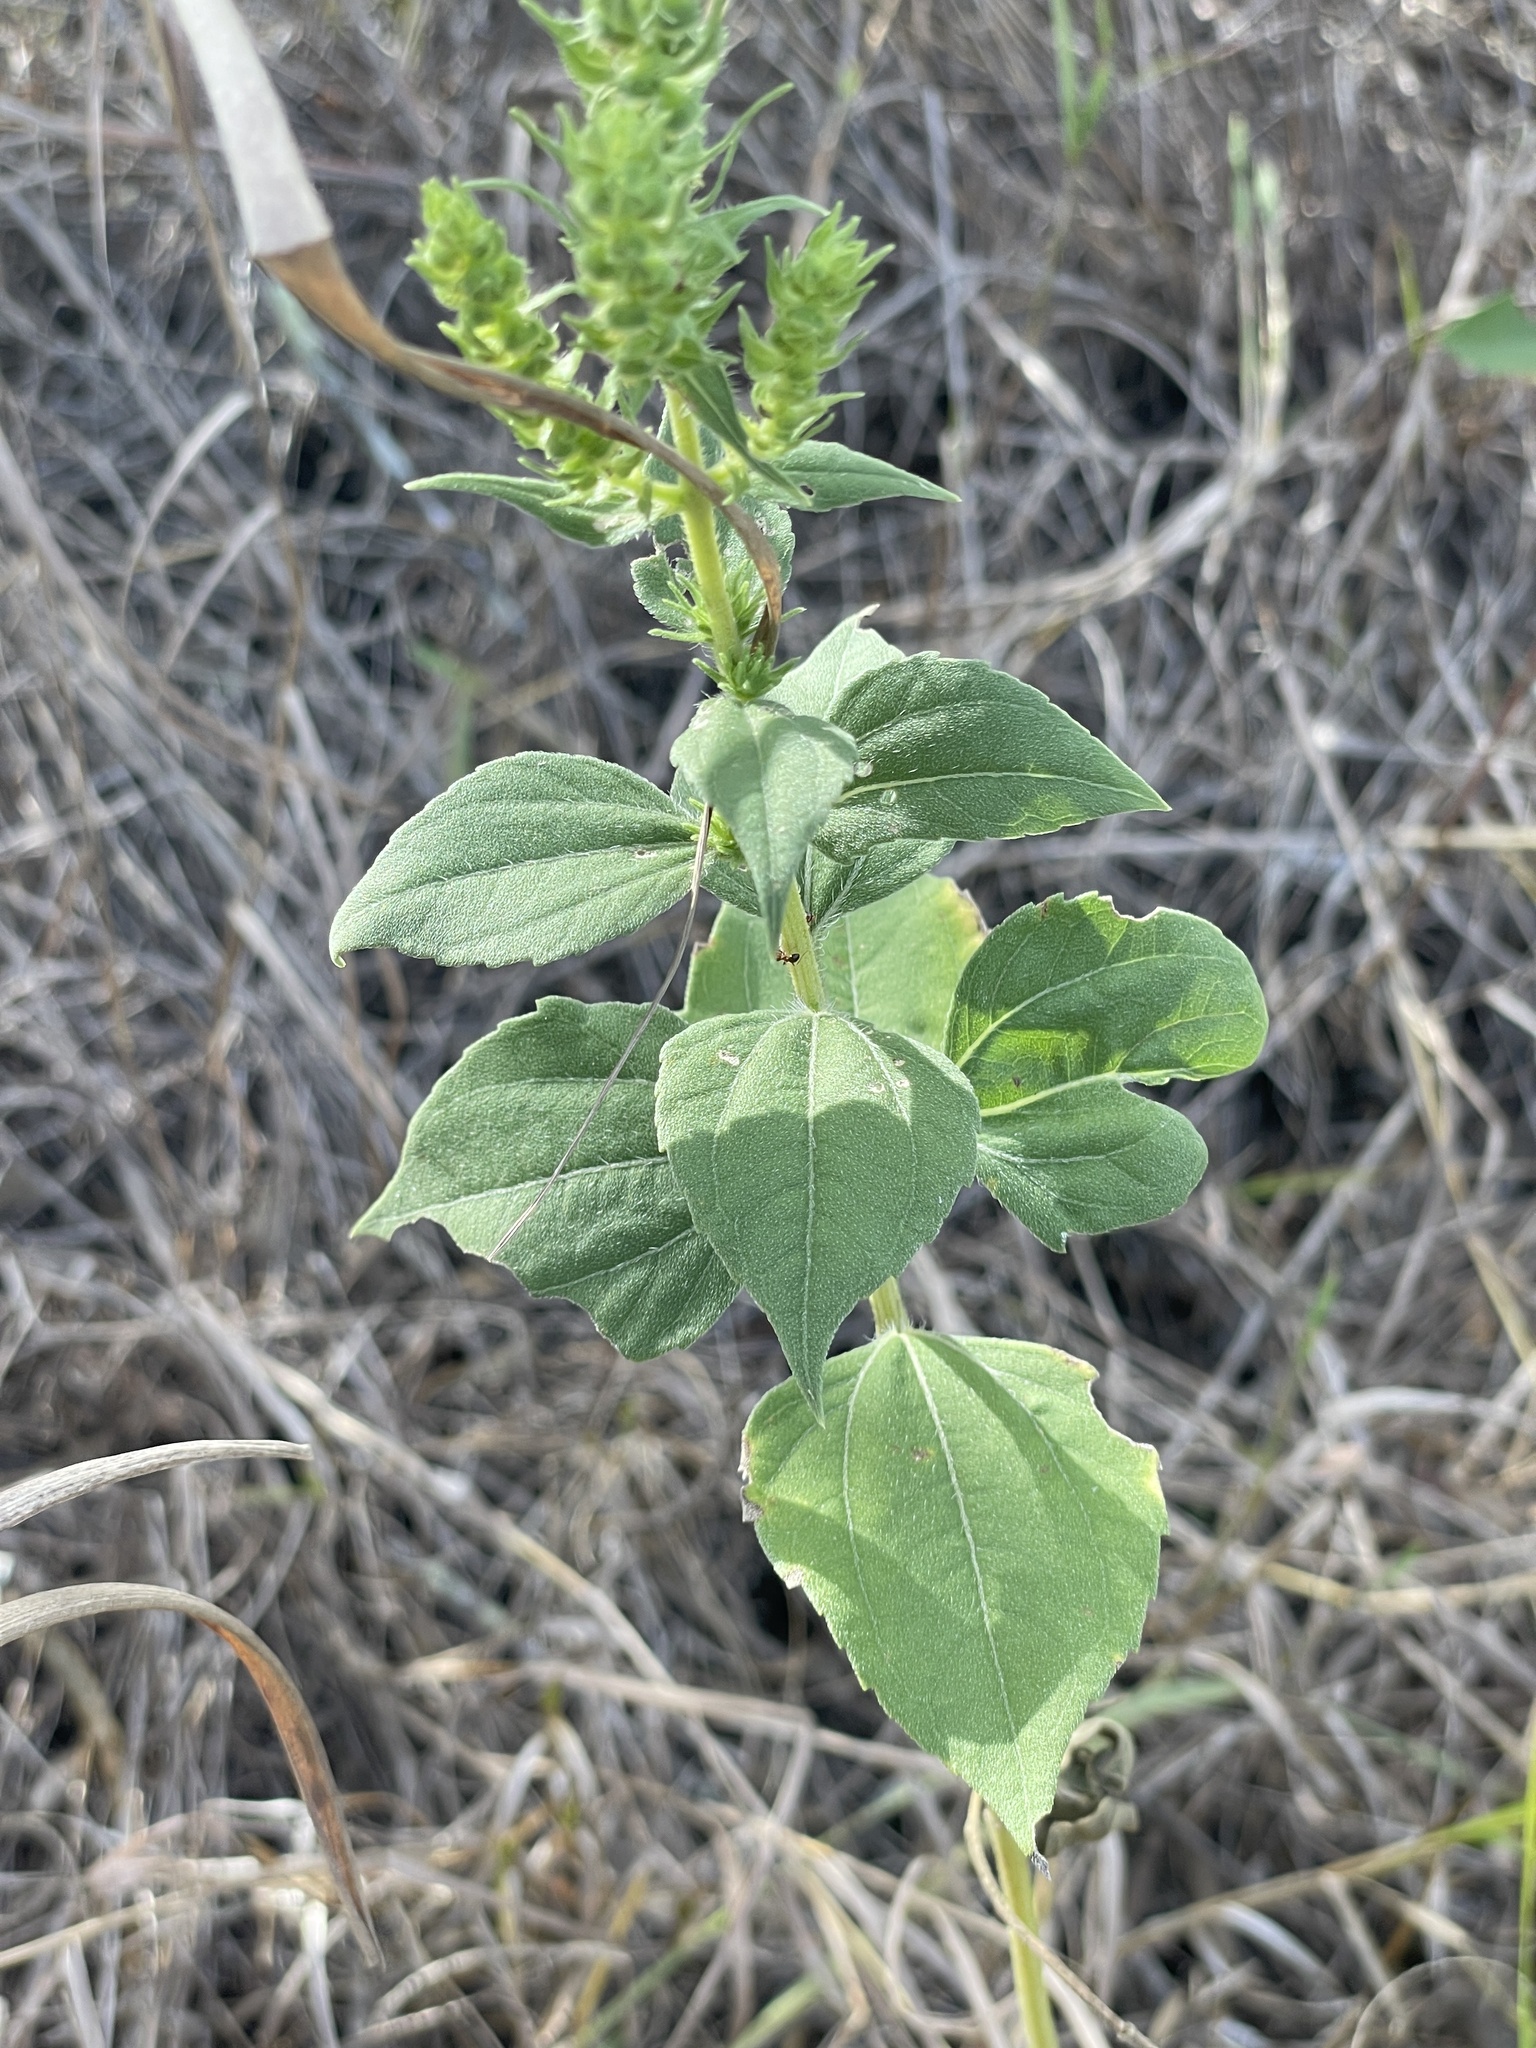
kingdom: Plantae
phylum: Tracheophyta
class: Magnoliopsida
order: Asterales
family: Asteraceae
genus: Iva
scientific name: Iva annua
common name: Marsh-elder
